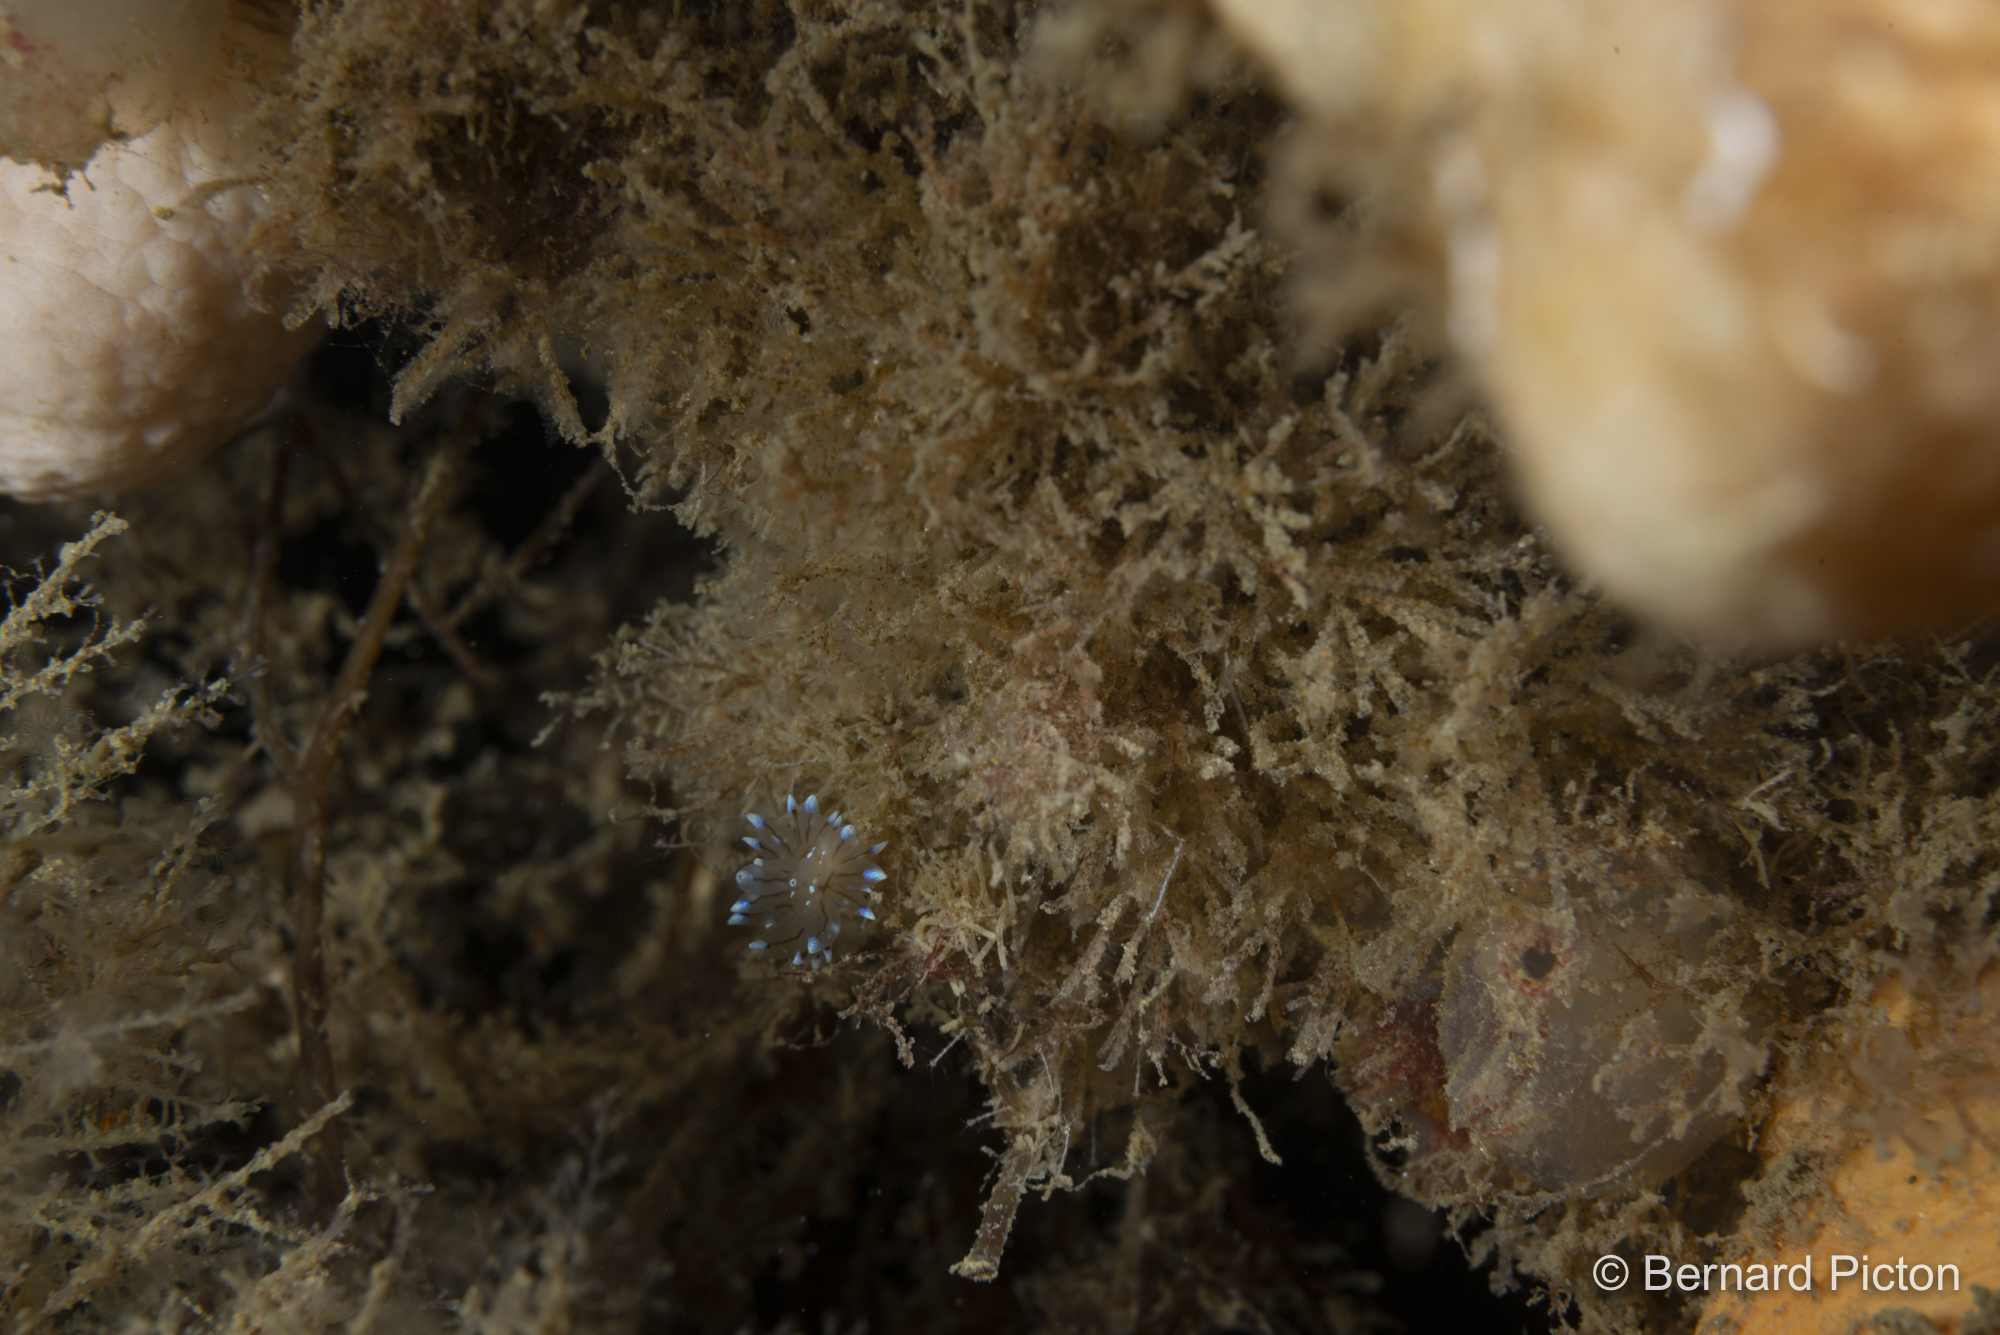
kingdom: Animalia
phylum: Mollusca
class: Gastropoda
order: Nudibranchia
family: Janolidae
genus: Antiopella
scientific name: Antiopella cristata
